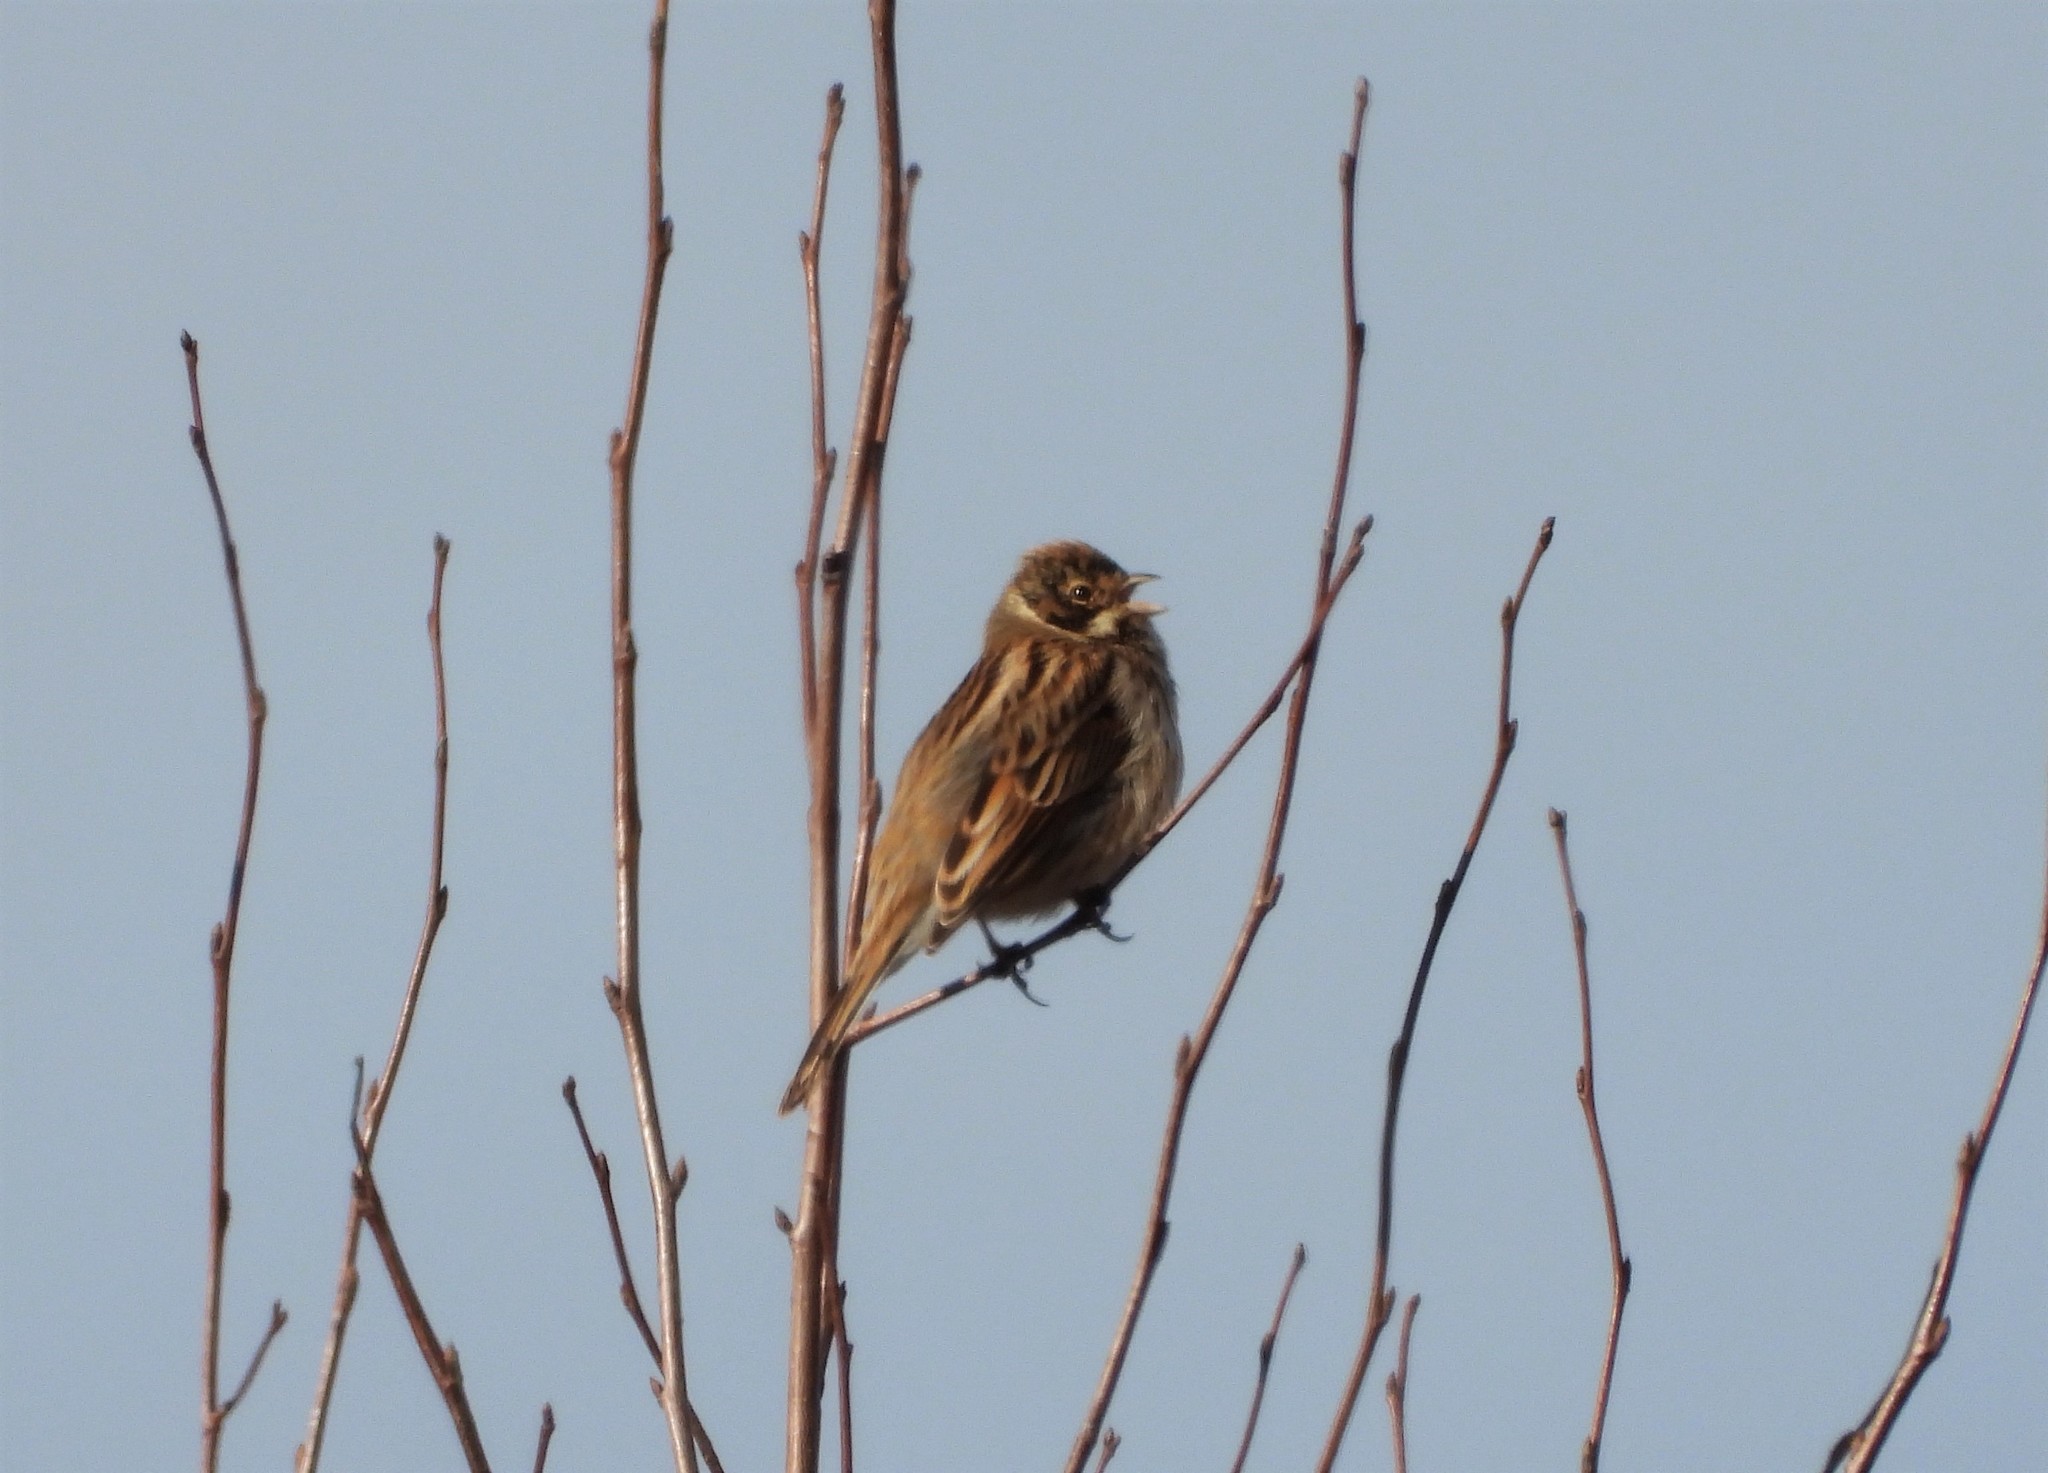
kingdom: Animalia
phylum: Chordata
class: Aves
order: Passeriformes
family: Emberizidae
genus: Emberiza
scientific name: Emberiza schoeniclus
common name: Reed bunting
